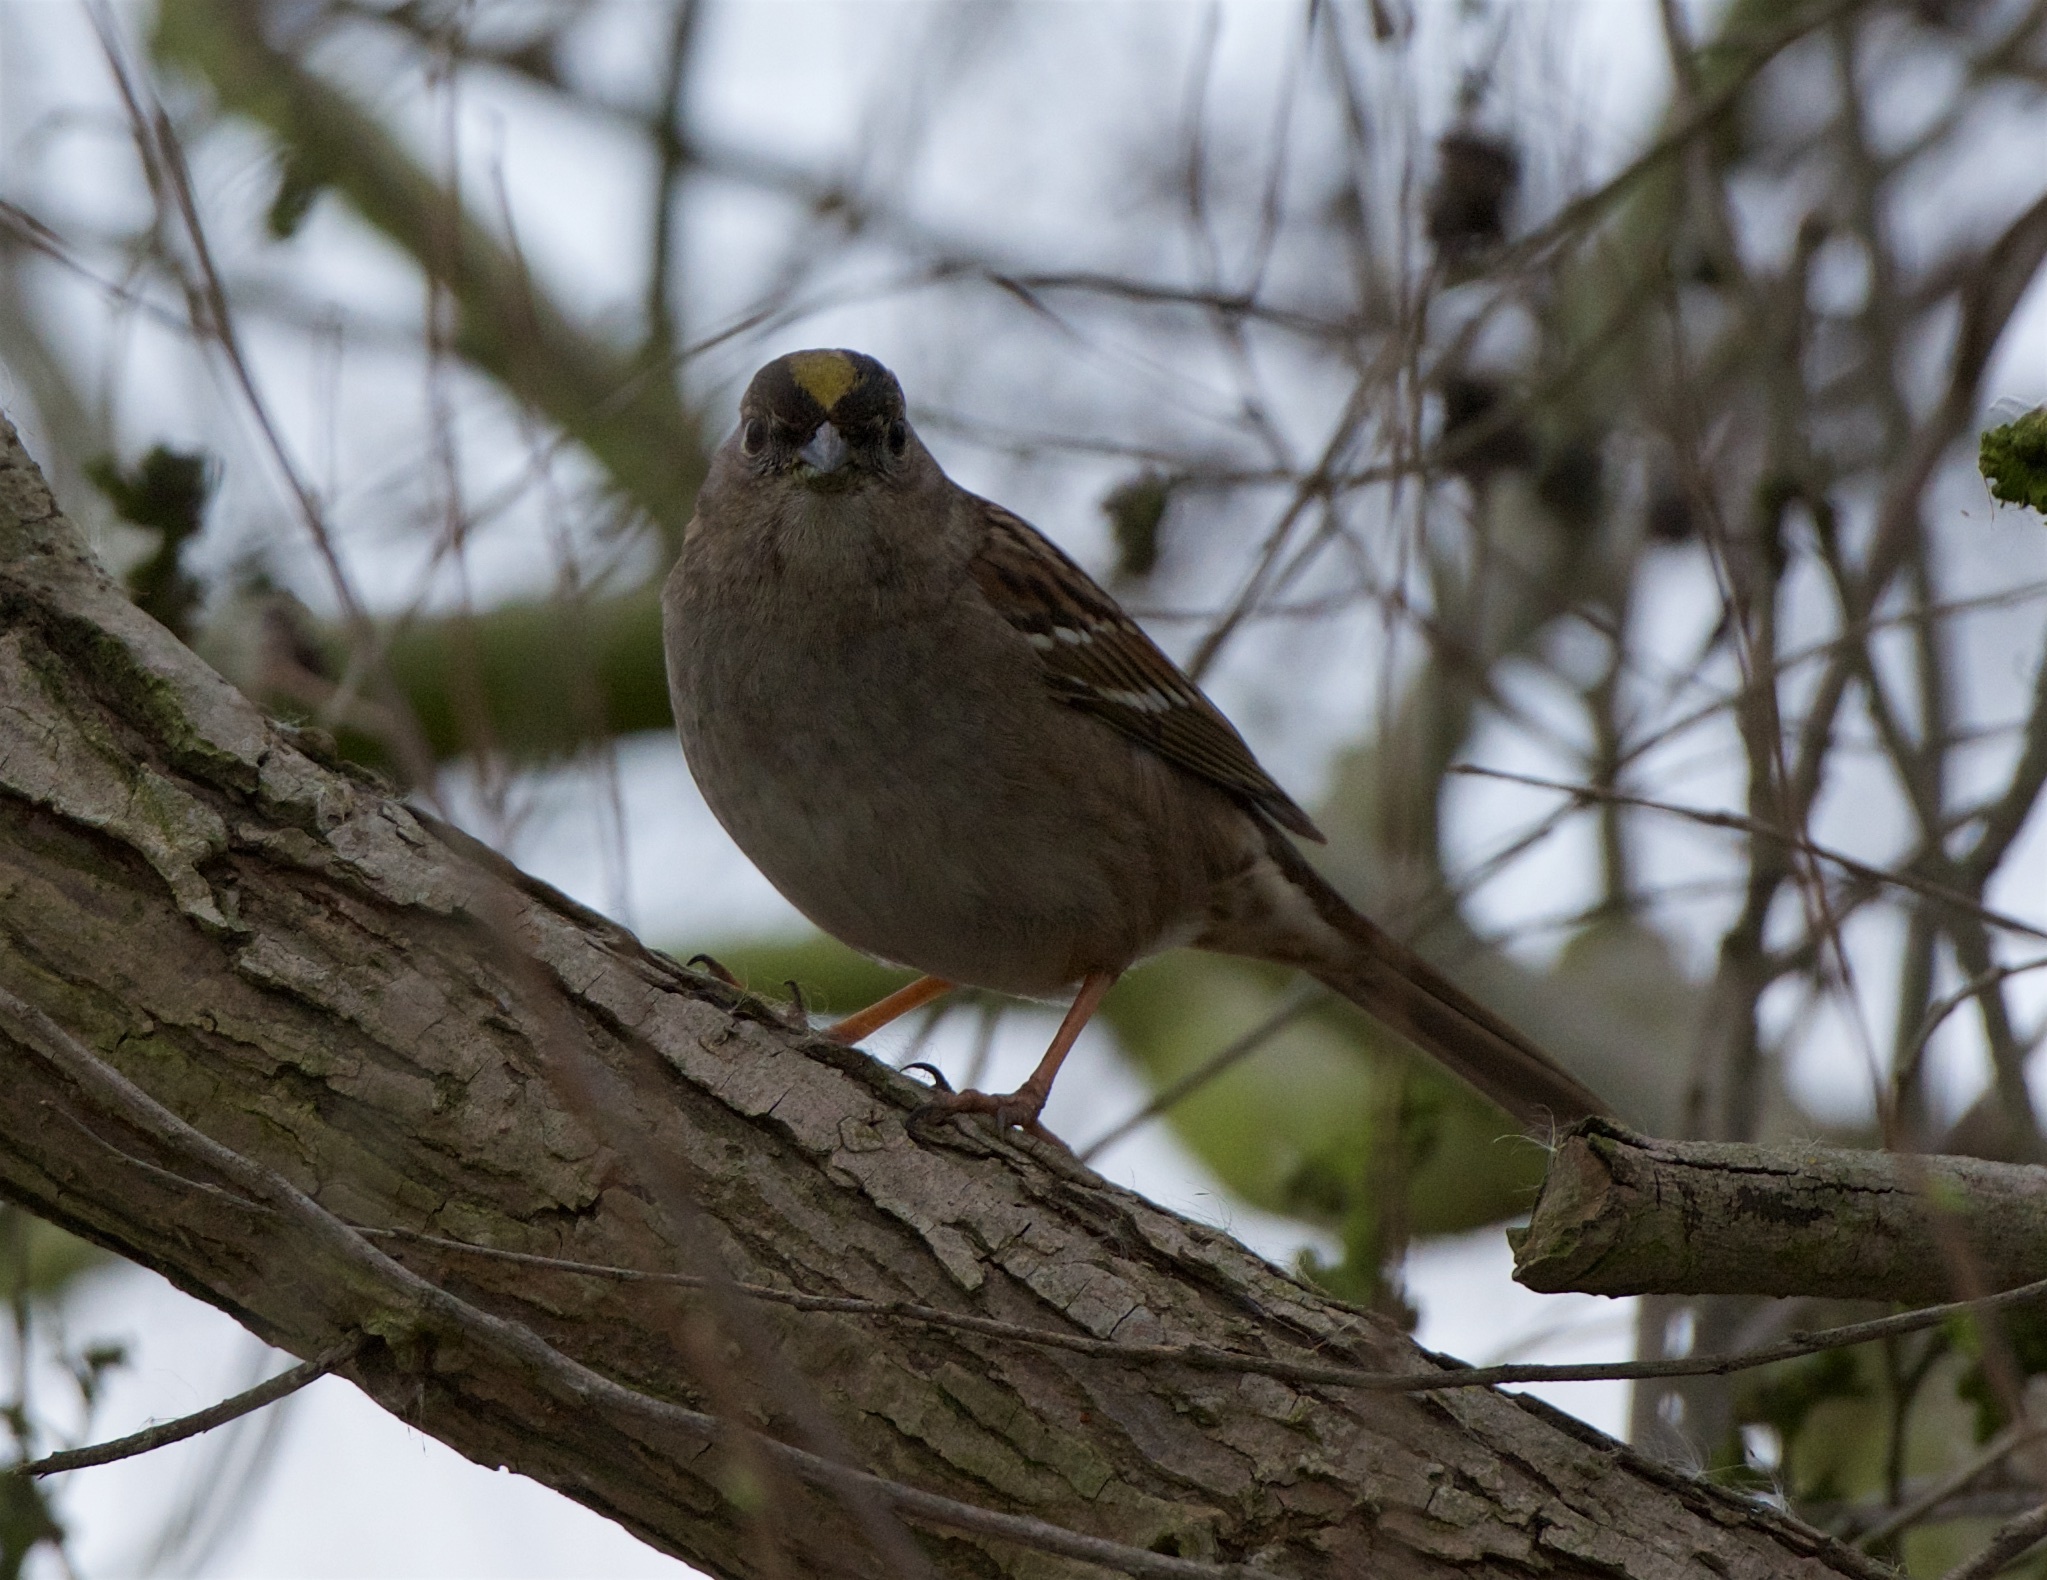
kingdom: Animalia
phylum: Chordata
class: Aves
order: Passeriformes
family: Passerellidae
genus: Zonotrichia
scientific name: Zonotrichia atricapilla
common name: Golden-crowned sparrow
